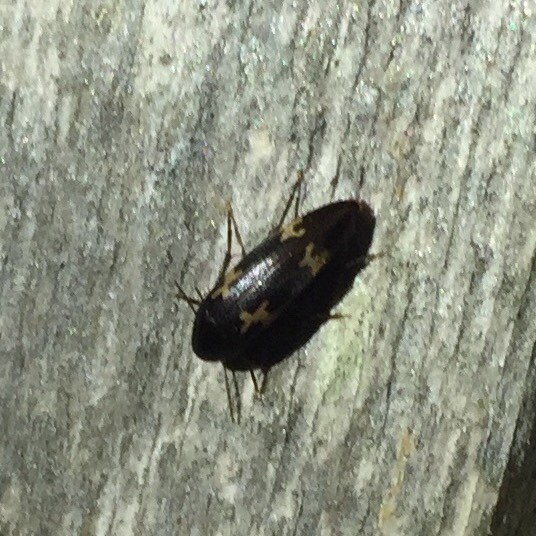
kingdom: Animalia
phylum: Arthropoda
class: Insecta
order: Coleoptera
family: Melandryidae
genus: Dircaea
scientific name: Dircaea liturata
